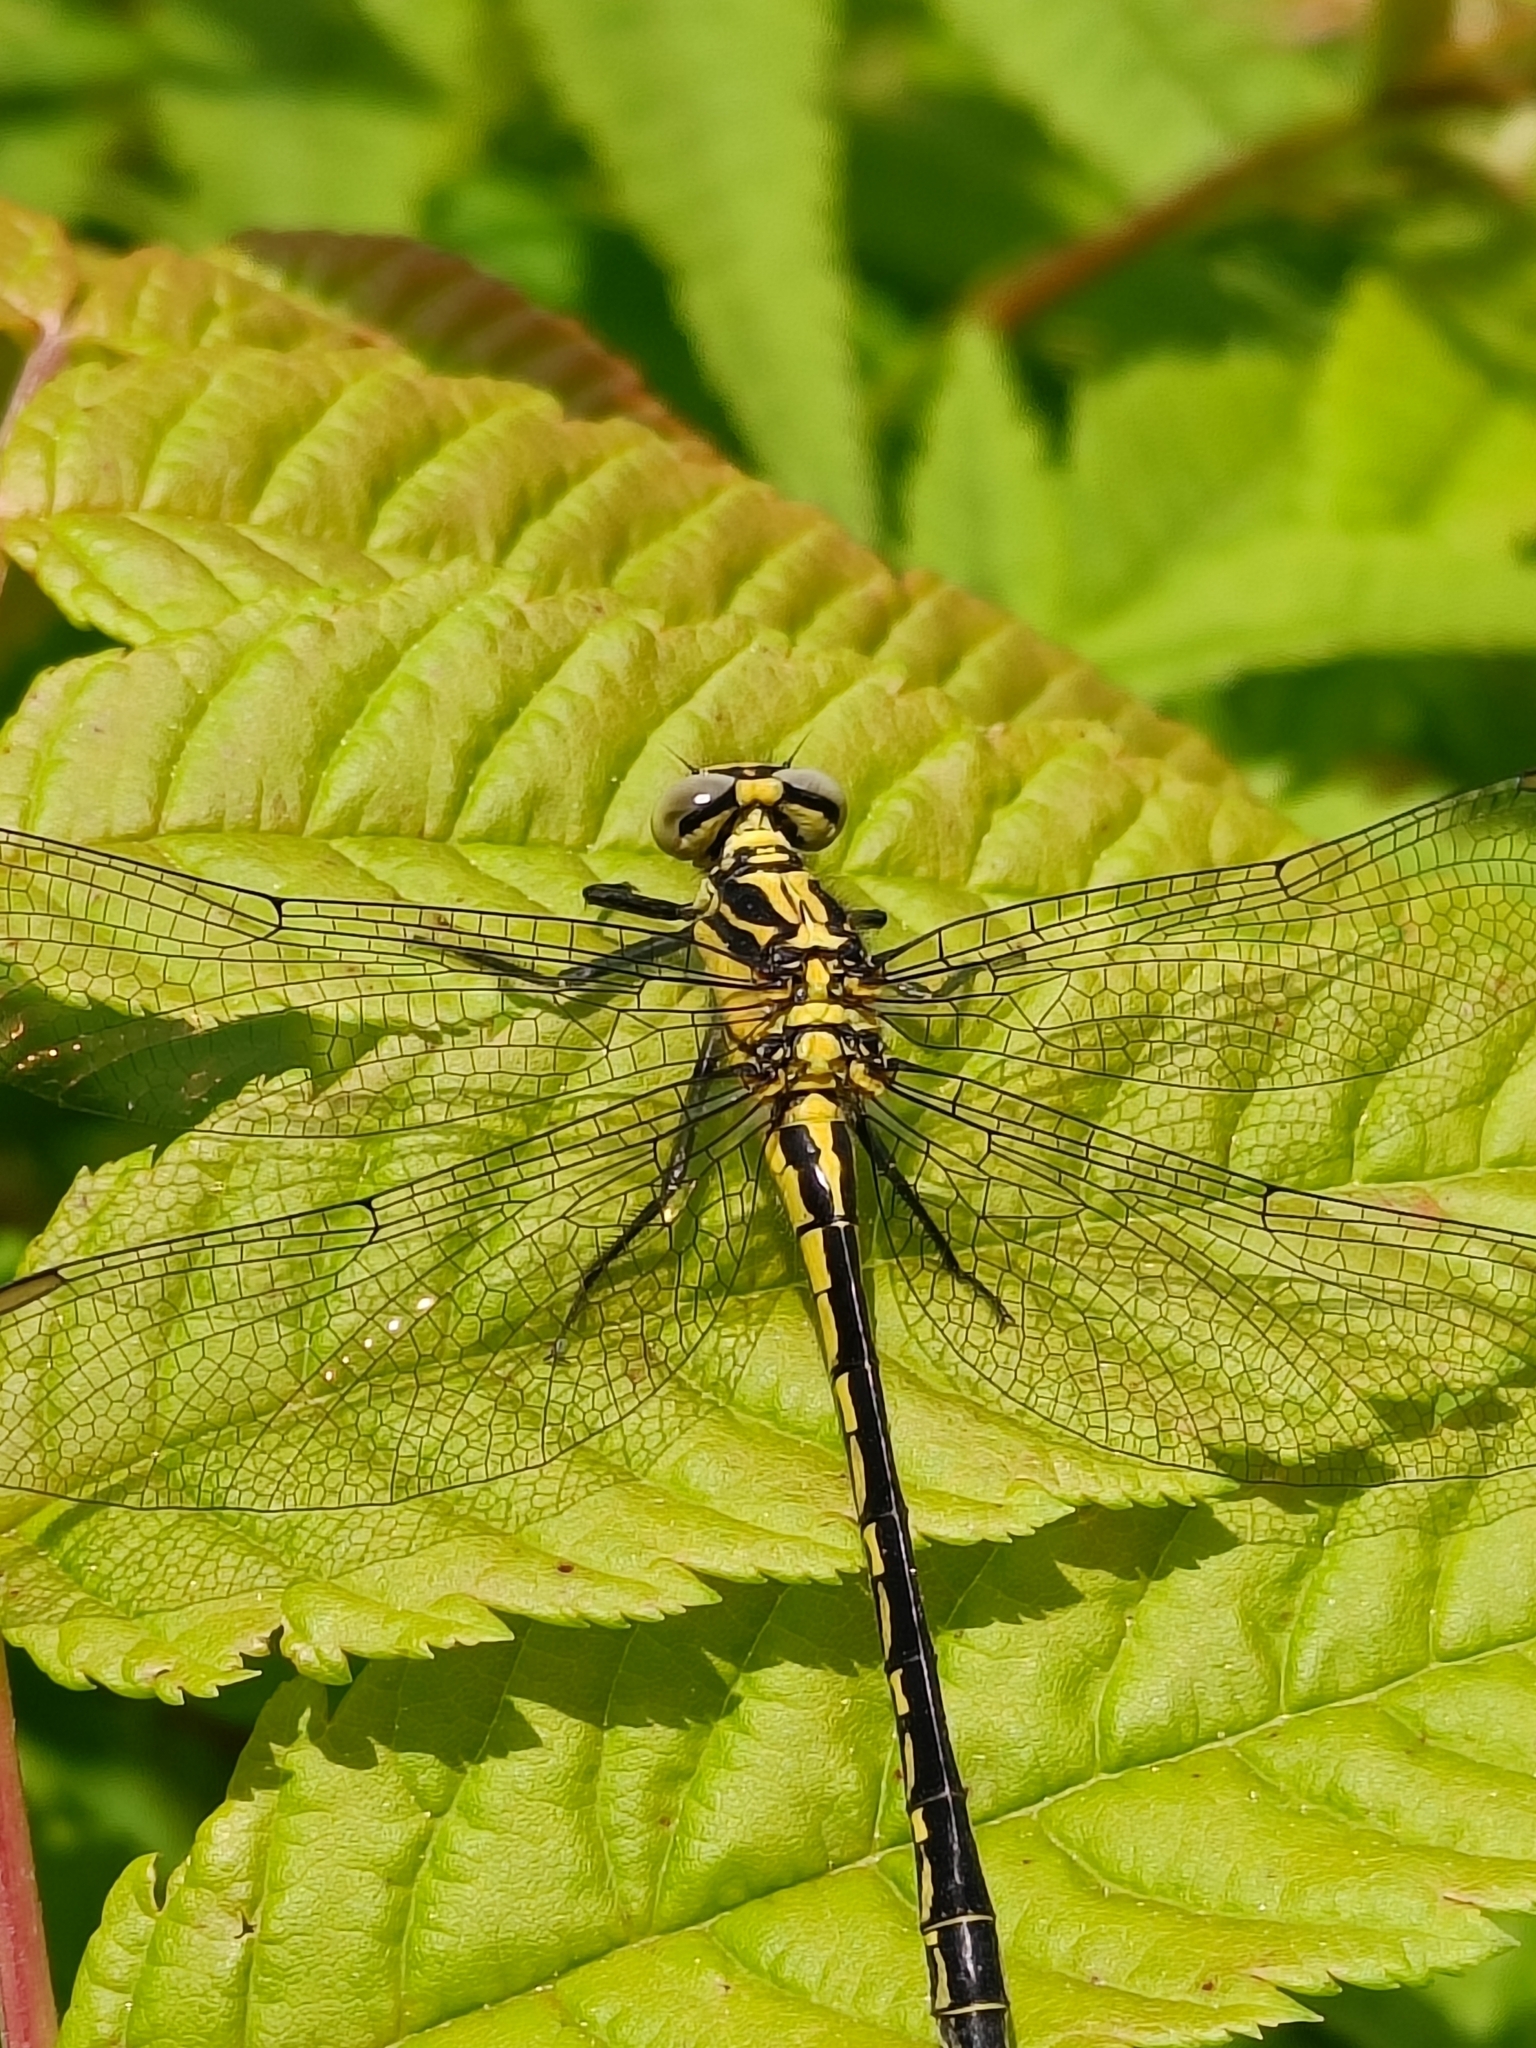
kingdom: Animalia
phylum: Arthropoda
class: Insecta
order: Odonata
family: Gomphidae
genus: Davidius
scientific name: Davidius aberrans
